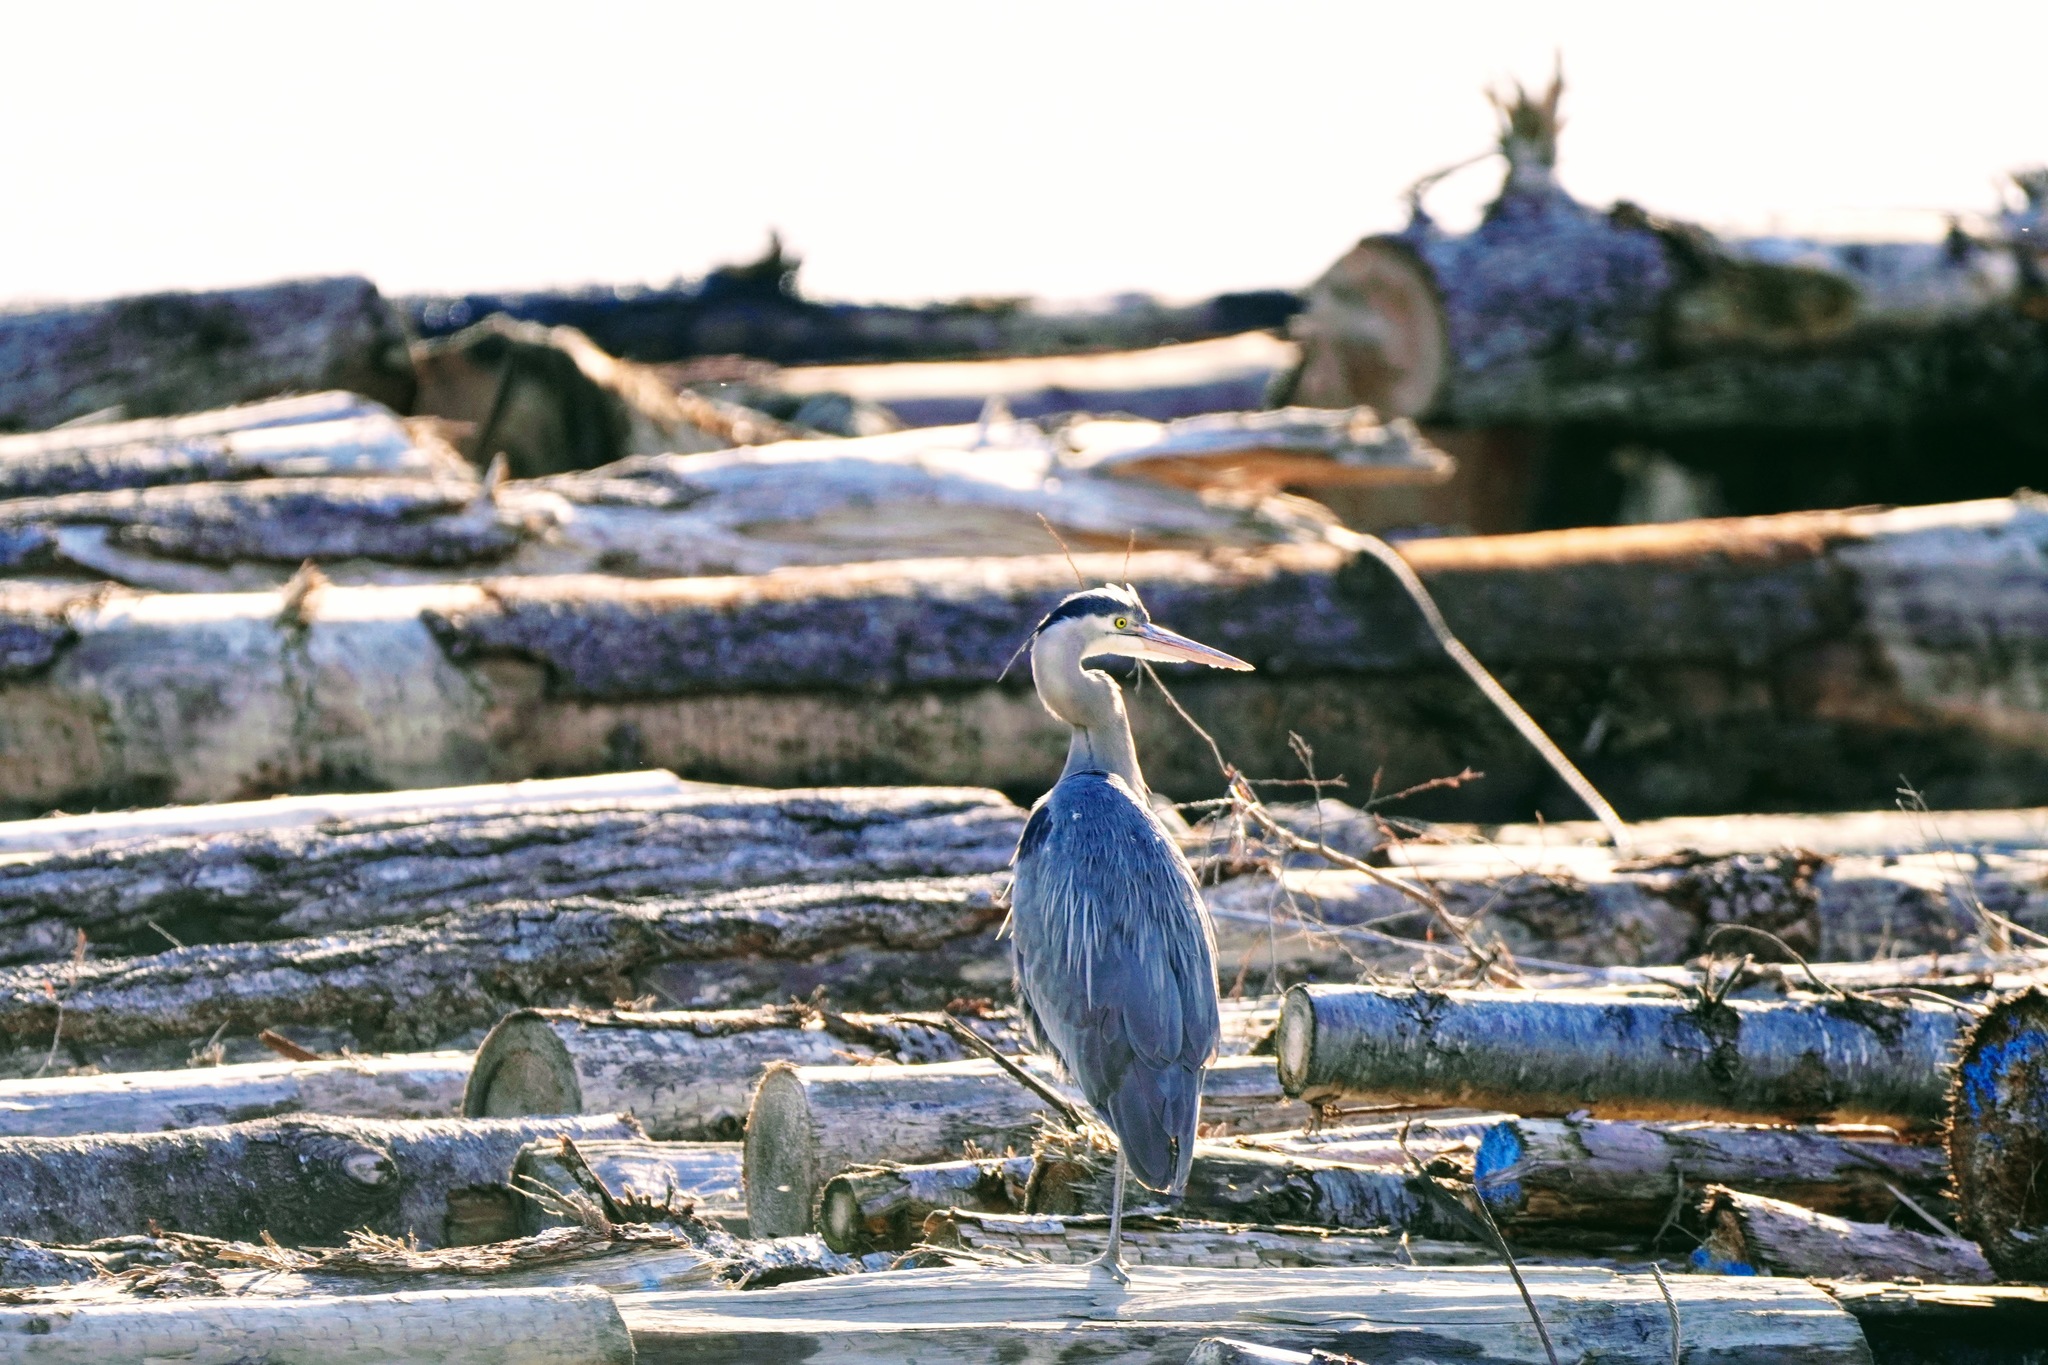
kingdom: Animalia
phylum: Chordata
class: Aves
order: Pelecaniformes
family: Ardeidae
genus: Ardea
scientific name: Ardea herodias
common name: Great blue heron
